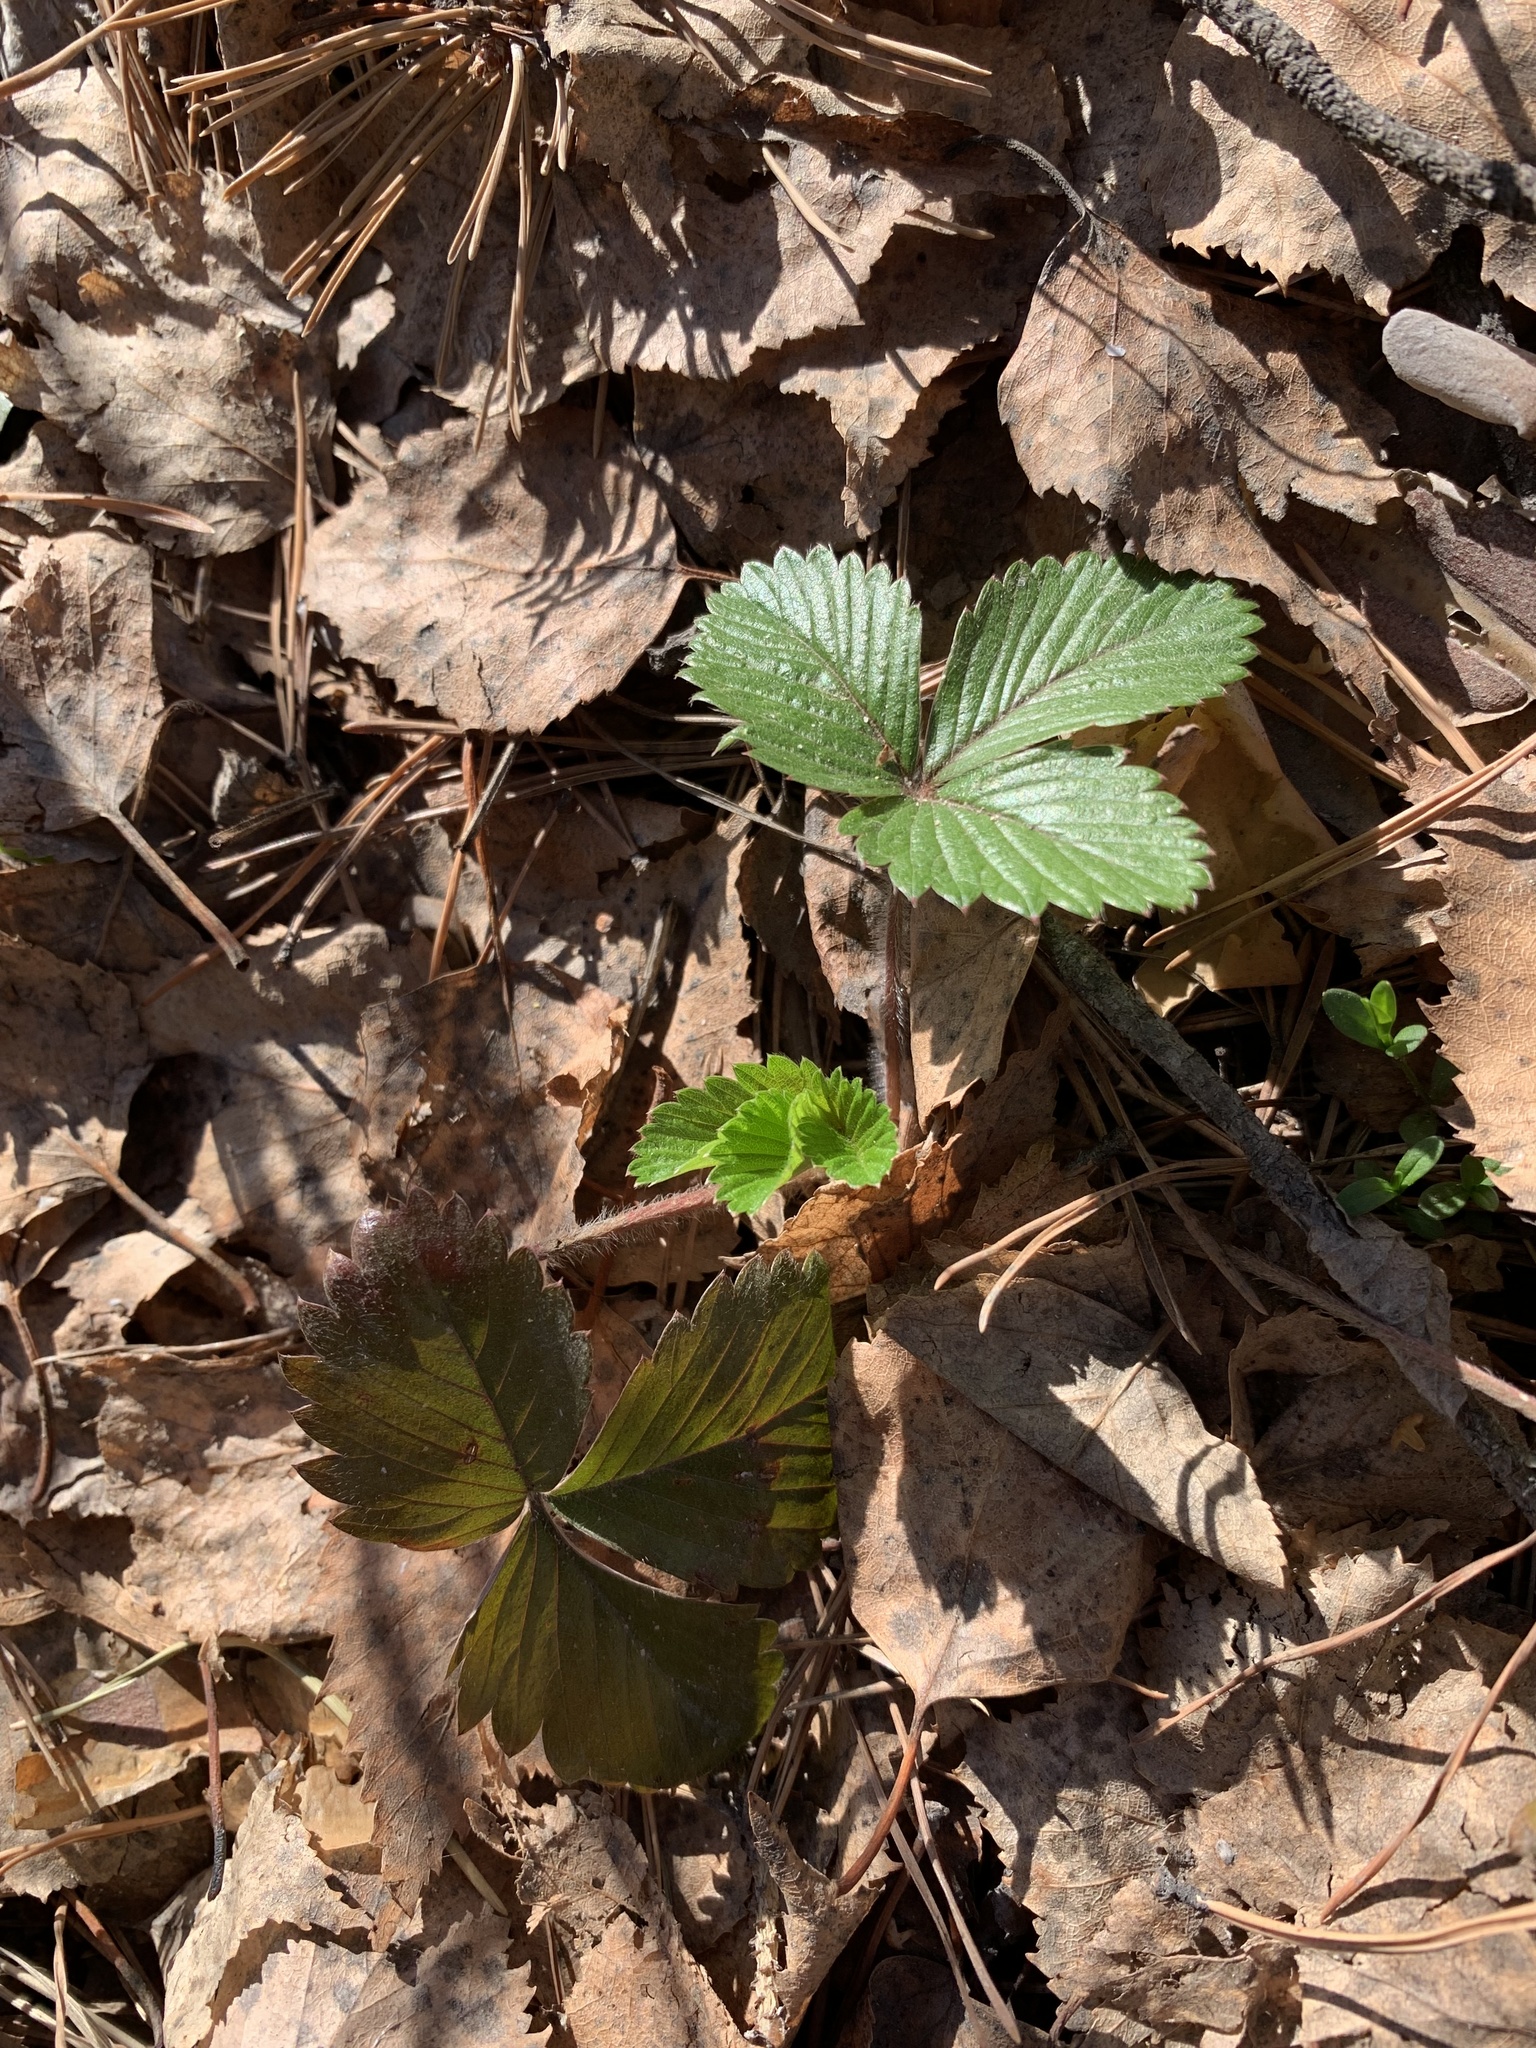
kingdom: Plantae
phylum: Tracheophyta
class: Magnoliopsida
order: Rosales
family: Rosaceae
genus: Fragaria
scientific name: Fragaria vesca
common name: Wild strawberry
